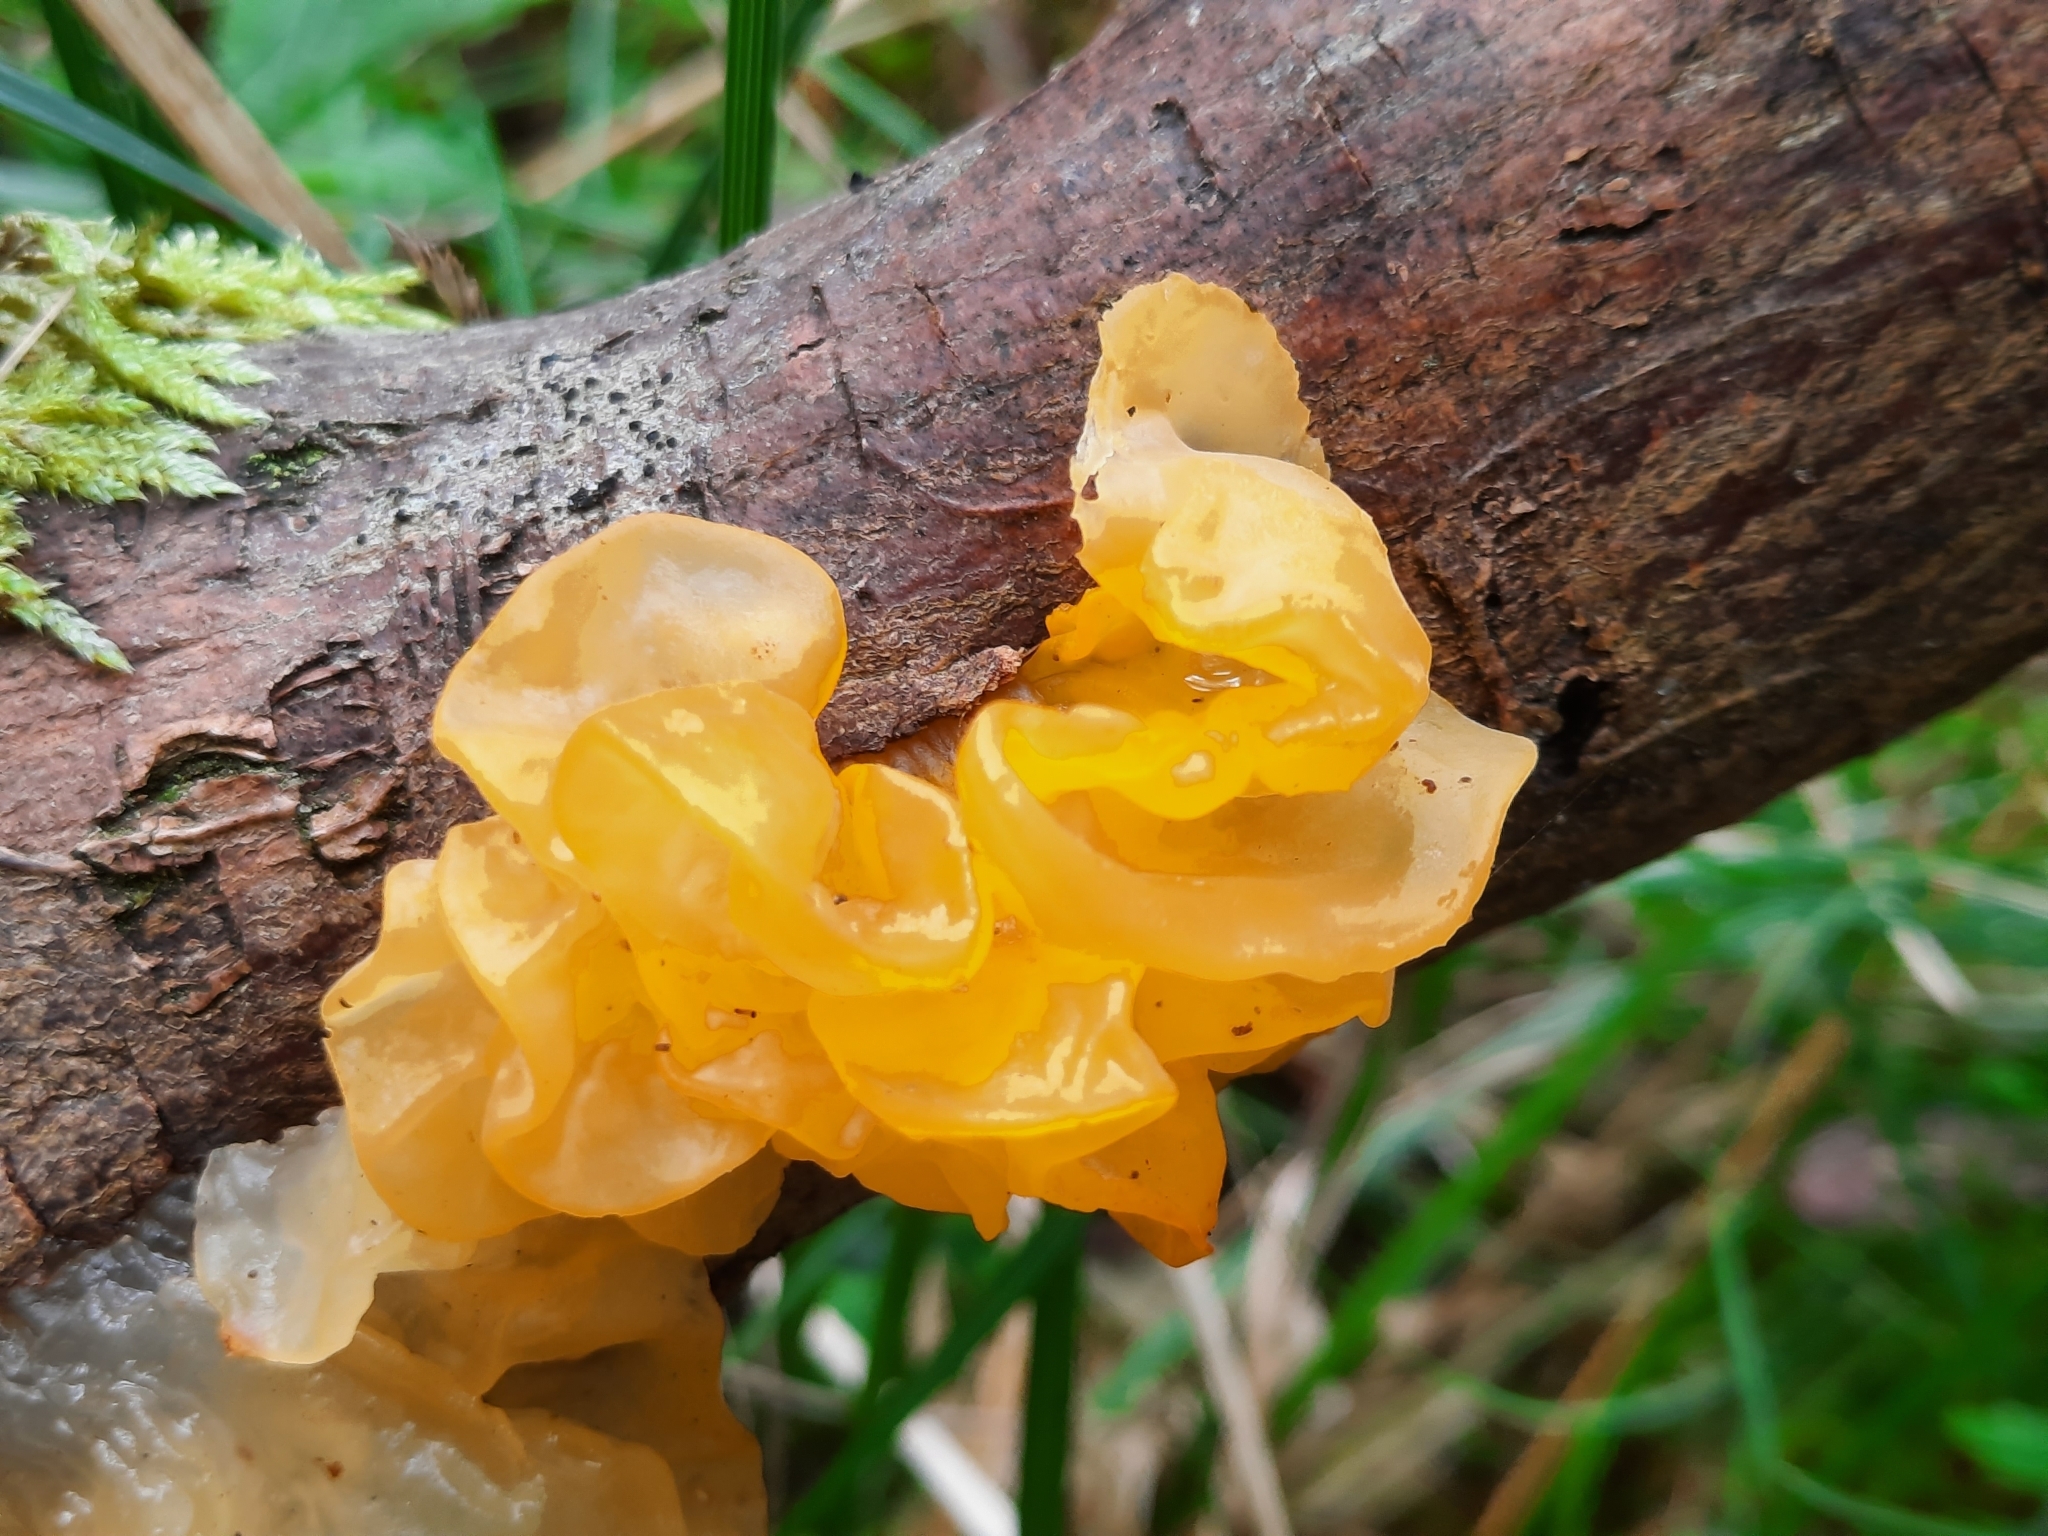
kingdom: Fungi
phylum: Basidiomycota
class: Tremellomycetes
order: Tremellales
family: Tremellaceae
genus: Tremella
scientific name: Tremella mesenterica
